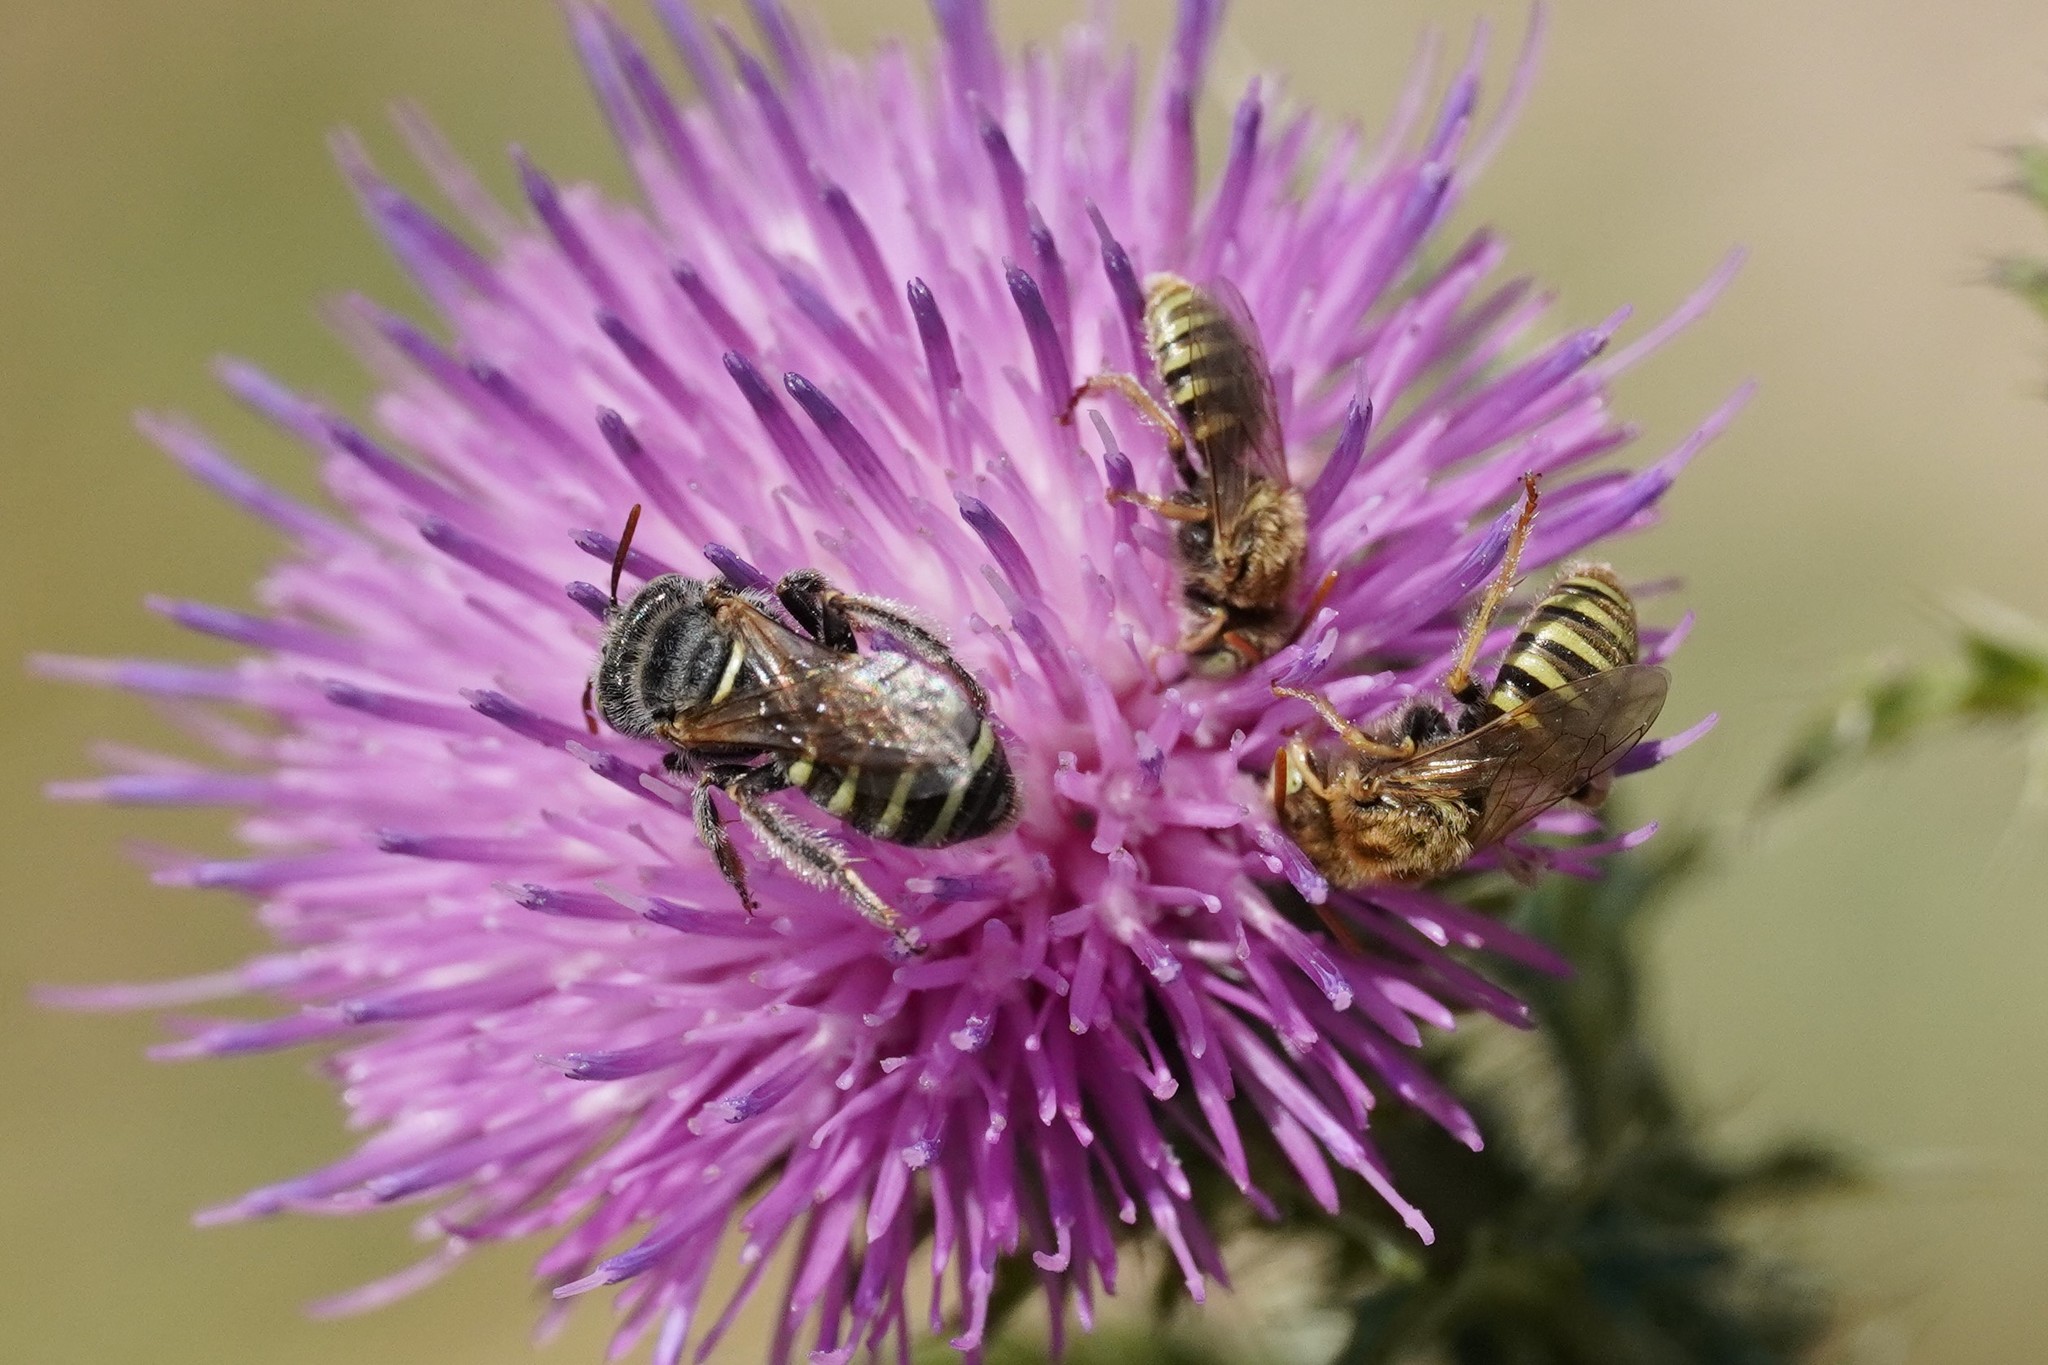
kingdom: Animalia
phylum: Arthropoda
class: Insecta
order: Hymenoptera
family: Andrenidae
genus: Camptopoeum
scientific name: Camptopoeum friesei
